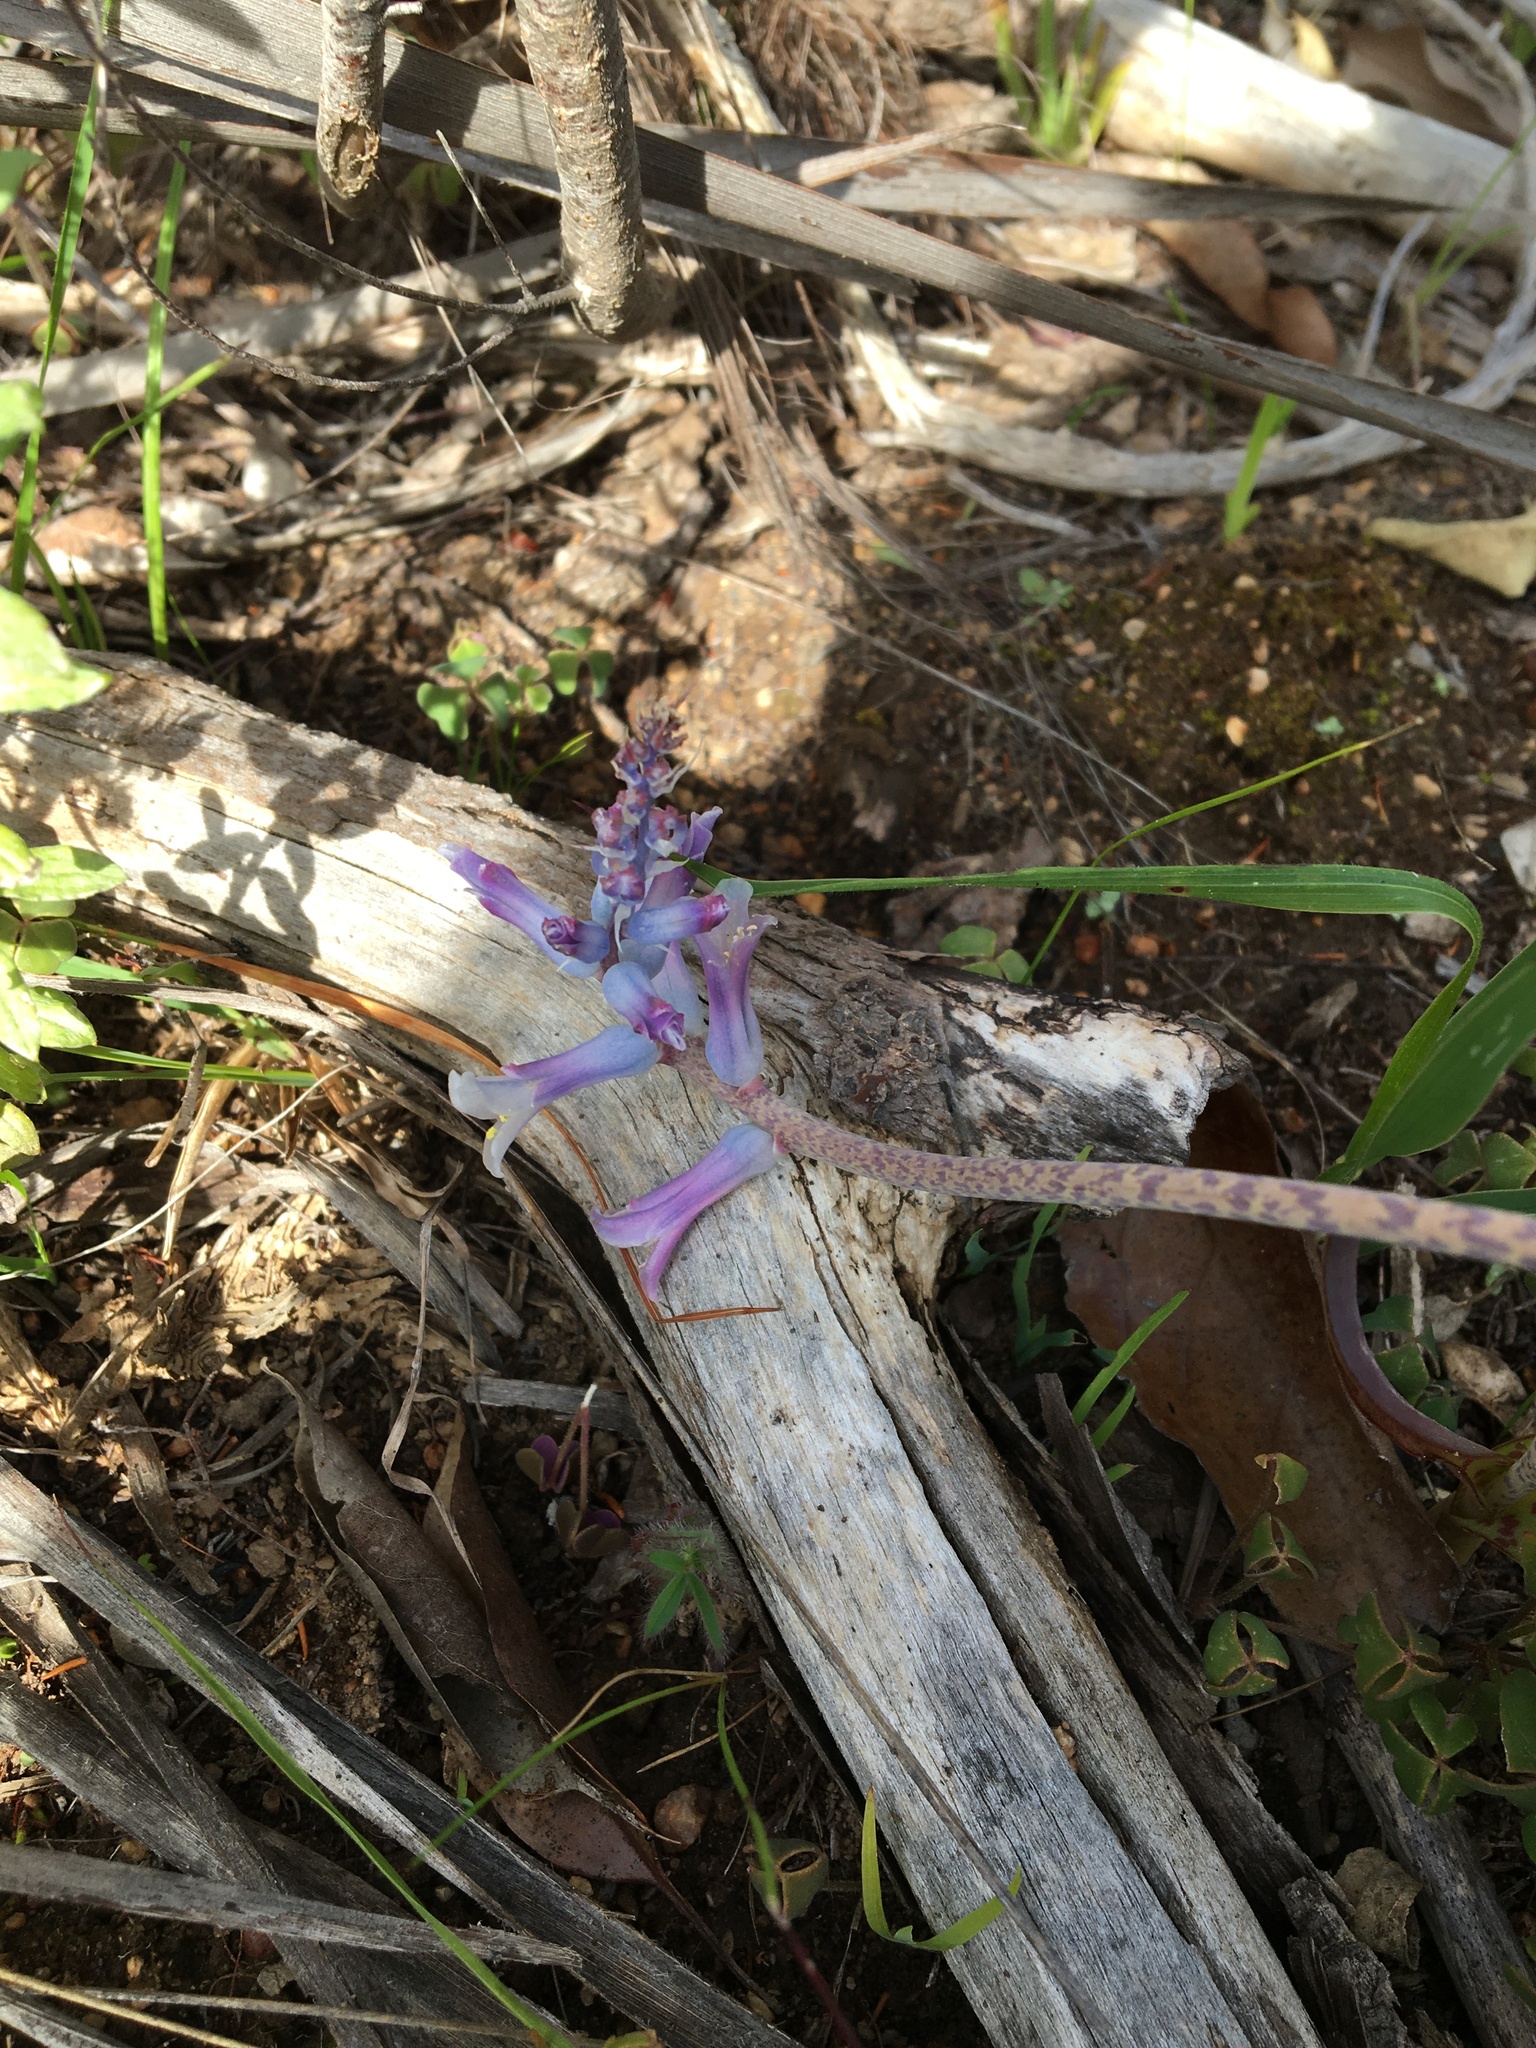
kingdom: Plantae
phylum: Tracheophyta
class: Liliopsida
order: Asparagales
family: Asparagaceae
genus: Lachenalia
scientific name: Lachenalia glaucina
